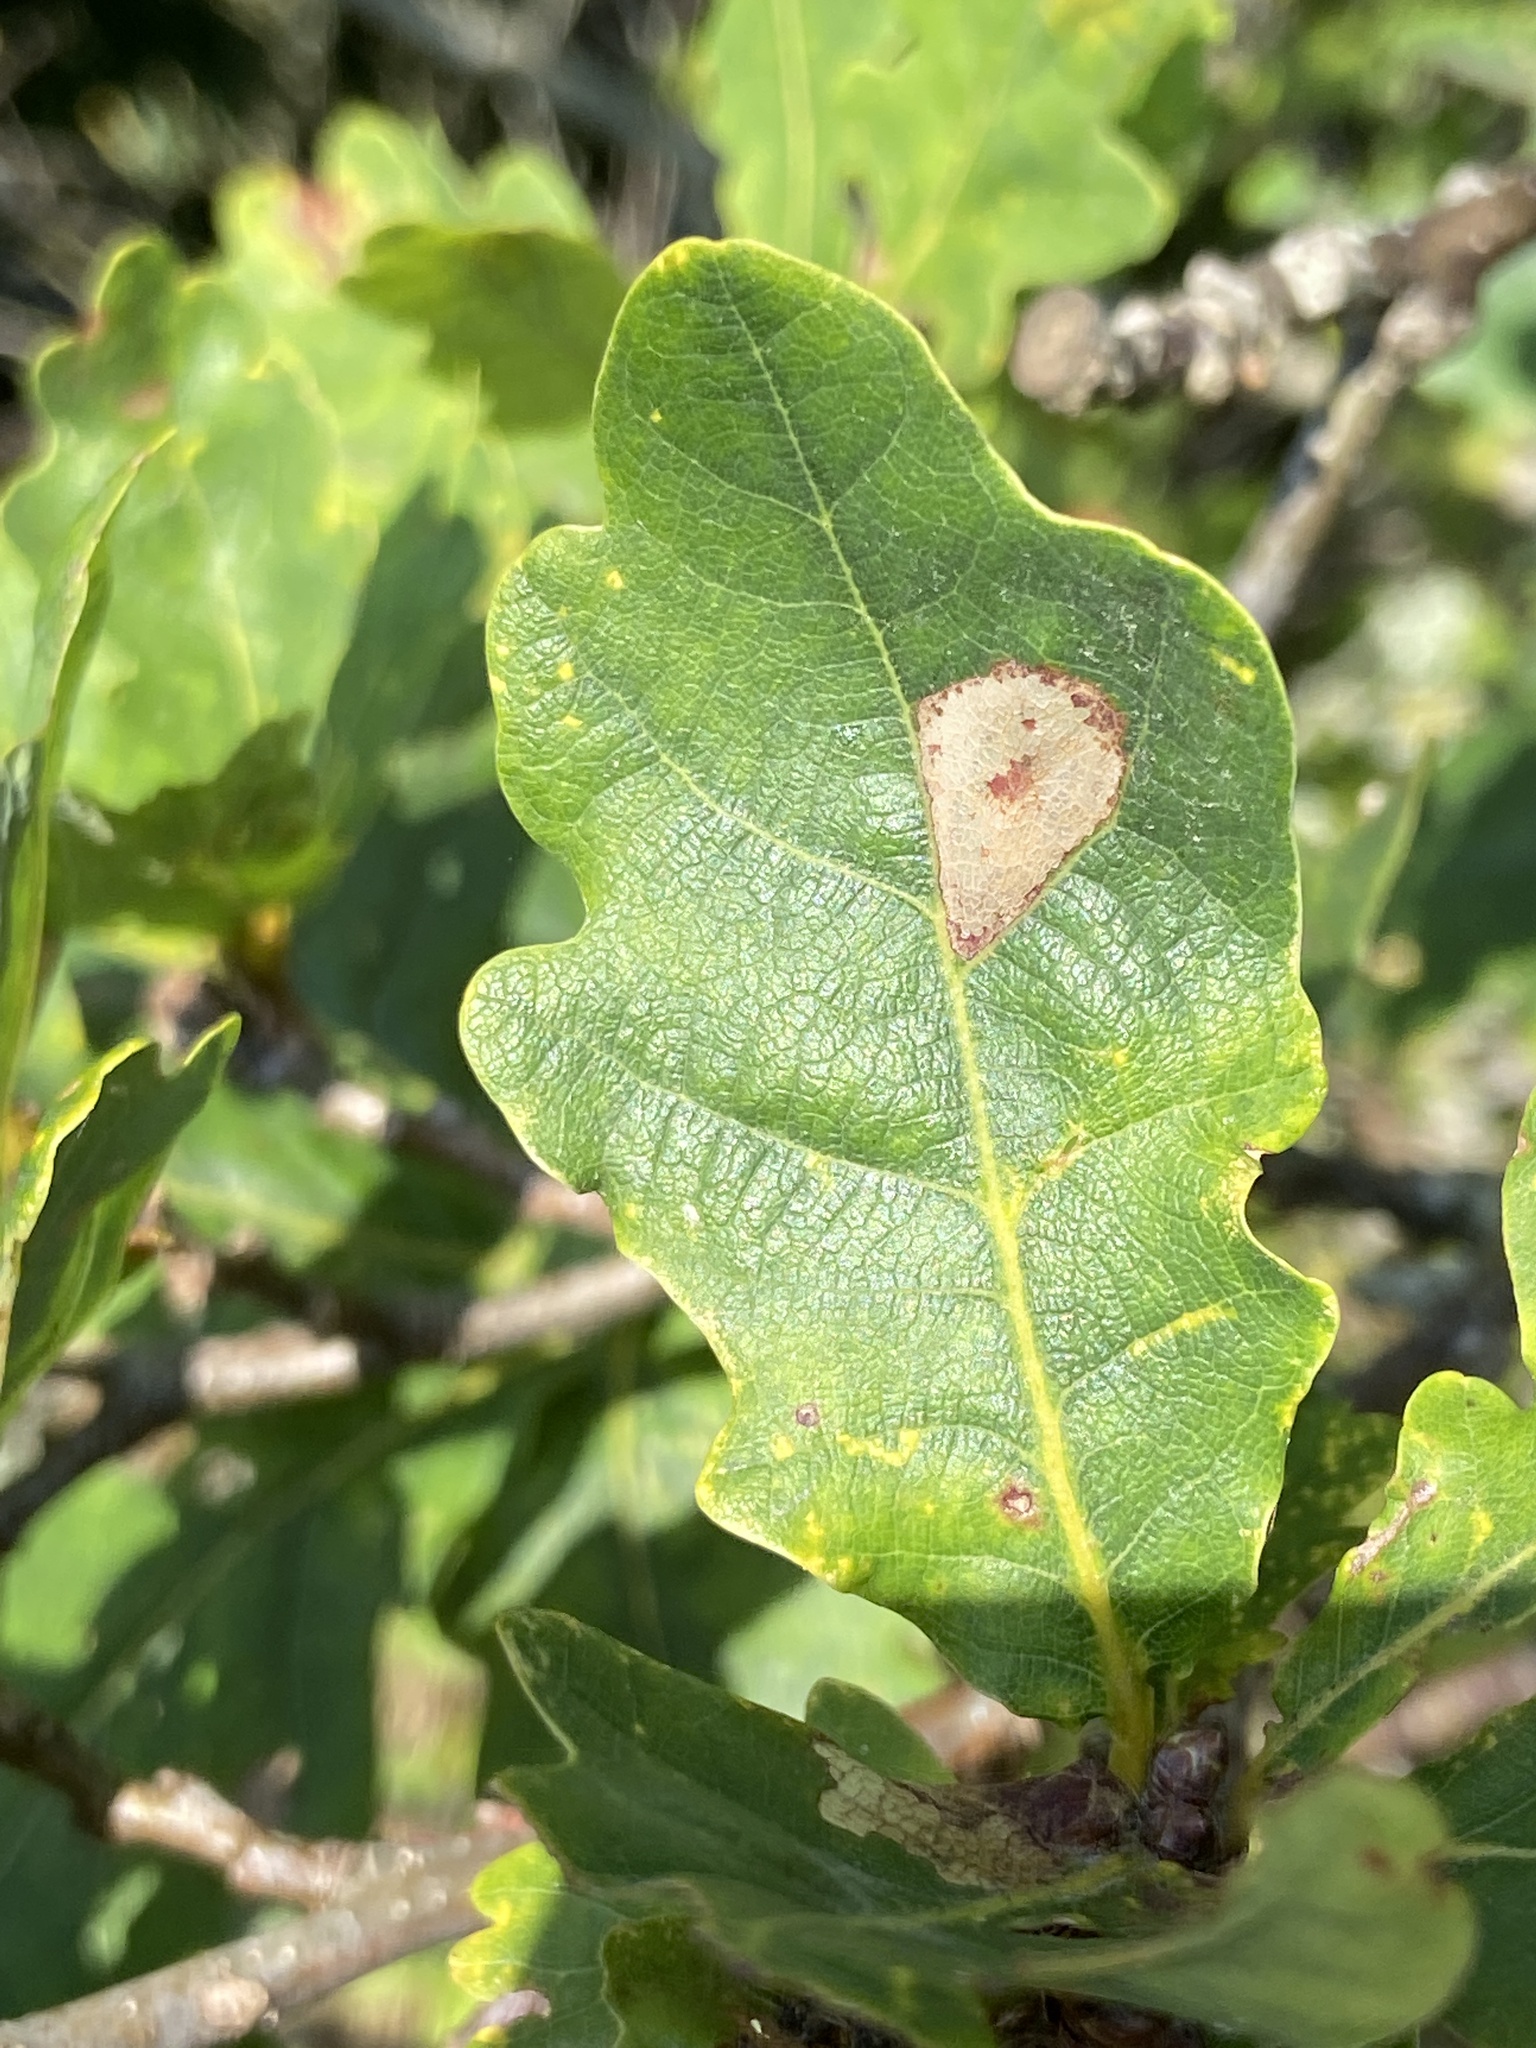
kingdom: Animalia
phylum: Arthropoda
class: Insecta
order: Lepidoptera
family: Gracillariidae
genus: Phyllonorycter
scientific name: Phyllonorycter messaniella
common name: Garden midget
